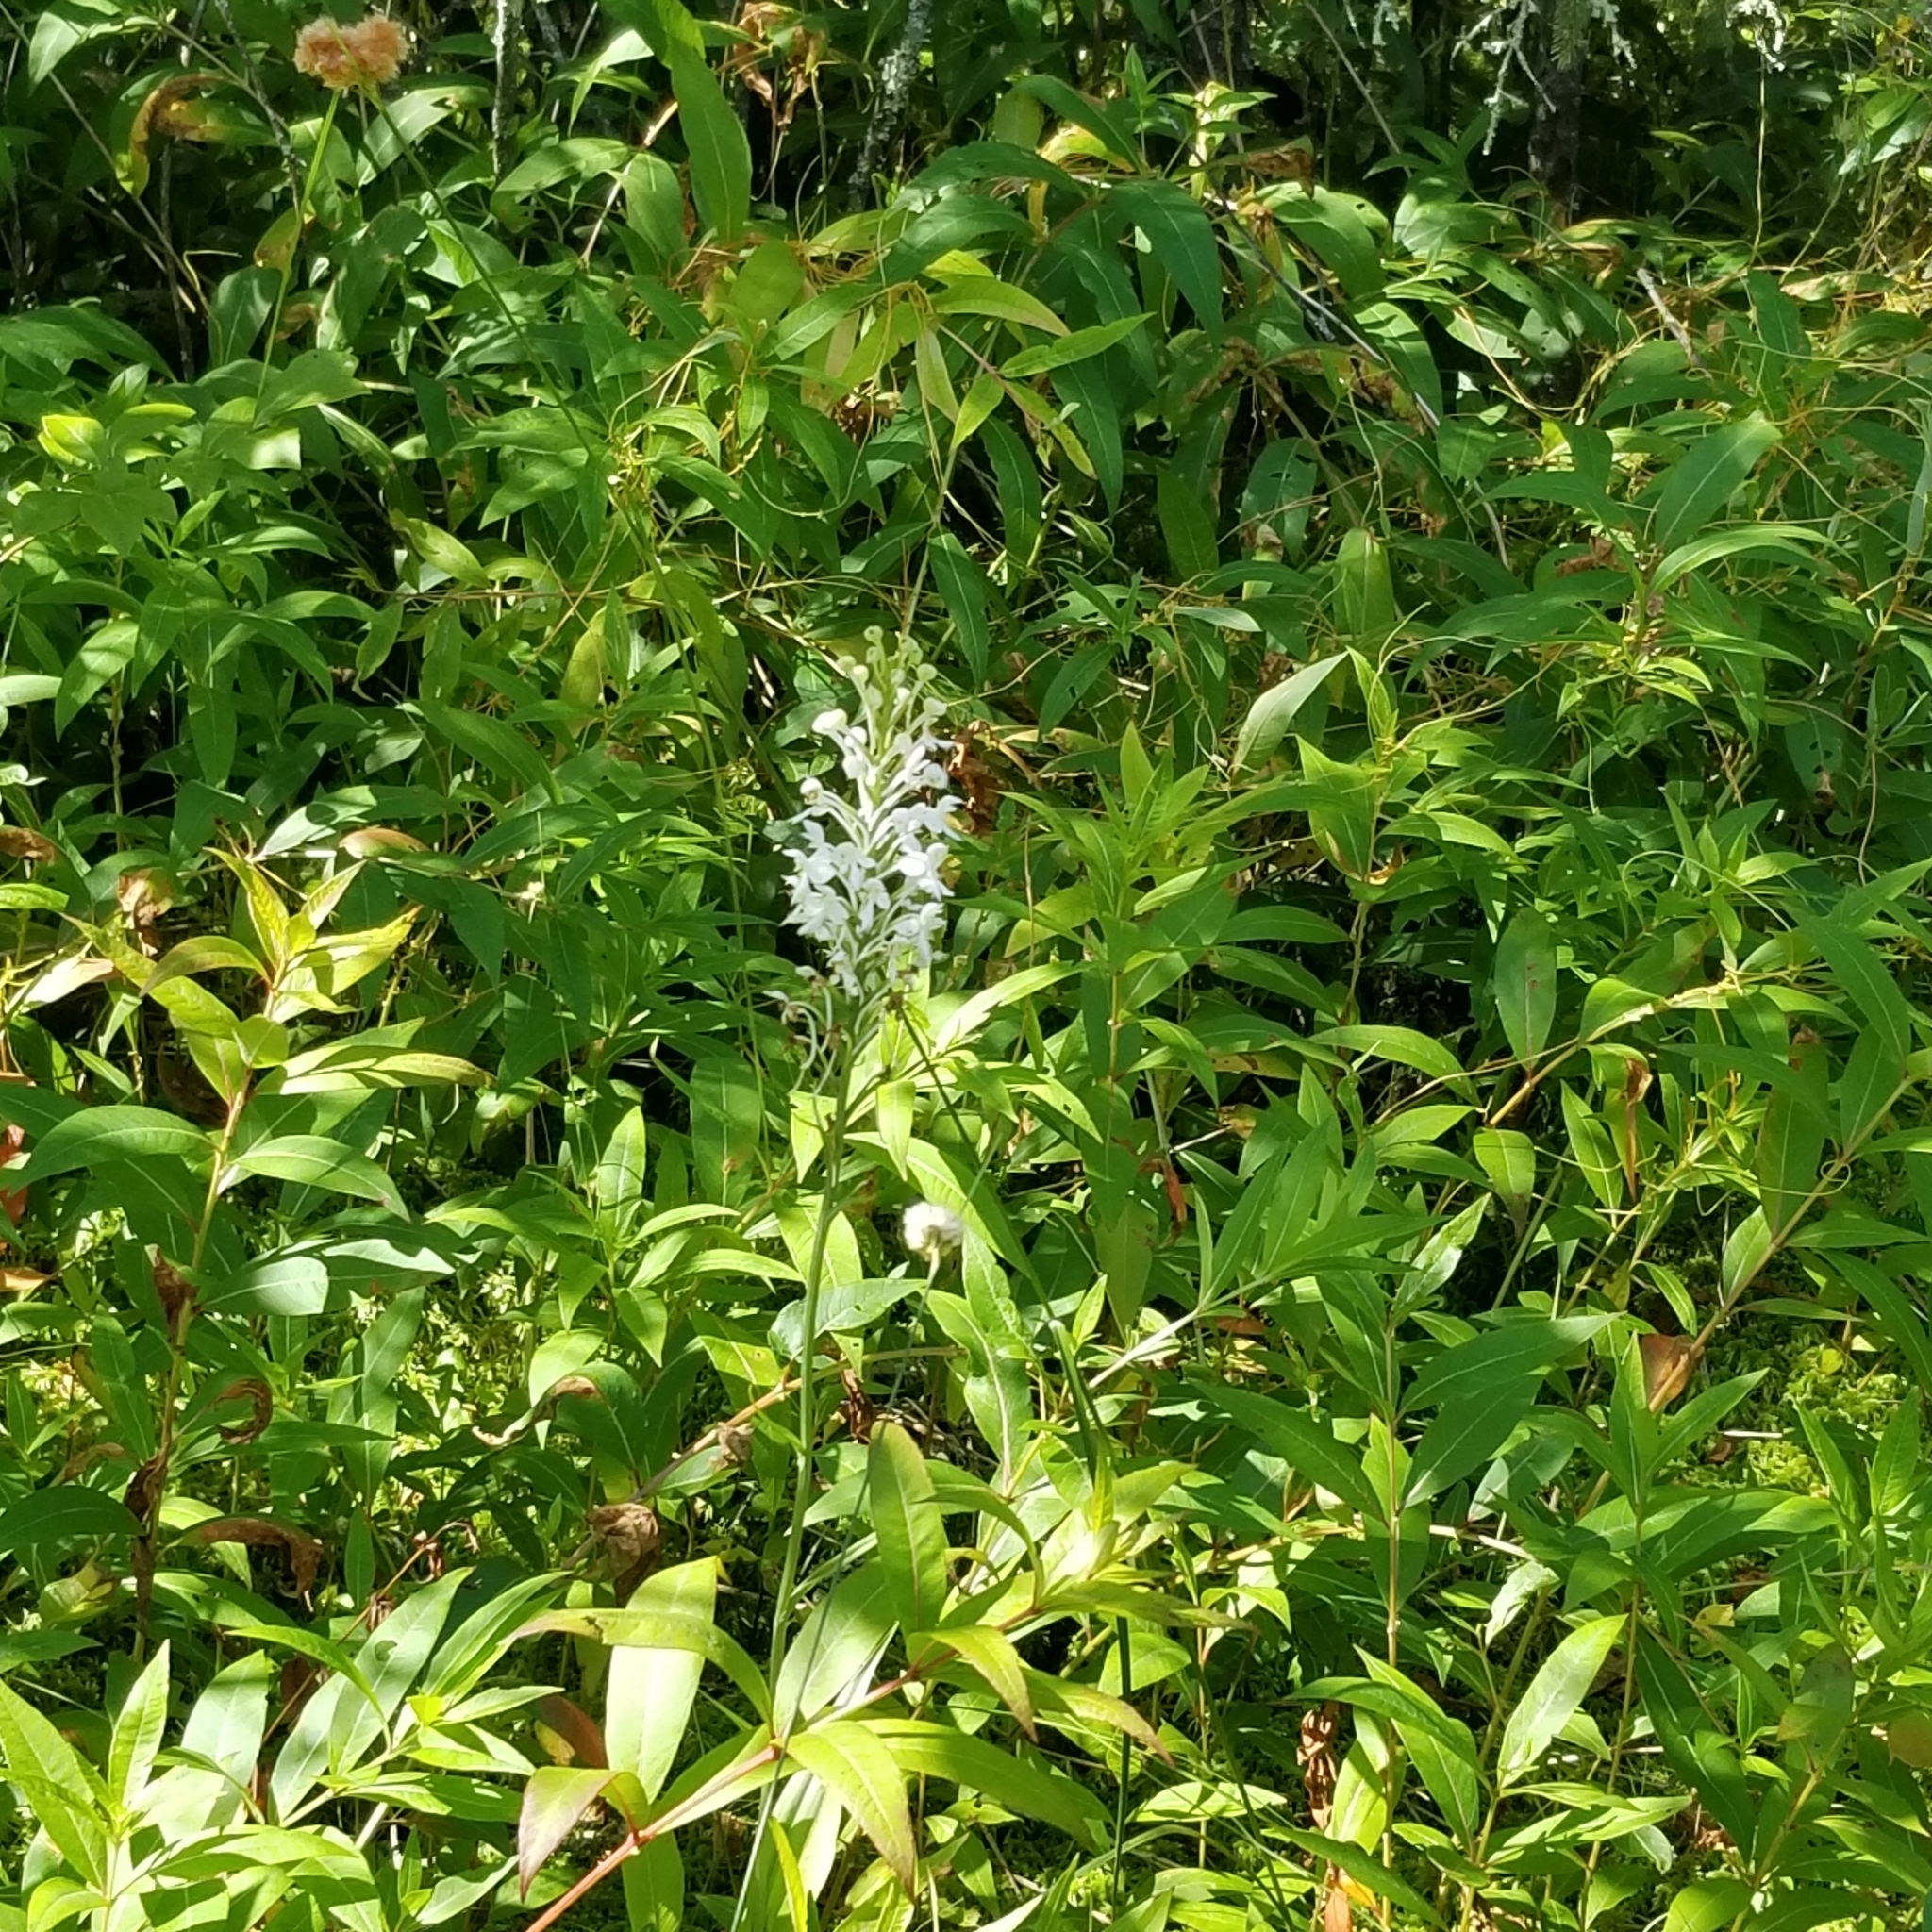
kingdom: Plantae
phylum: Tracheophyta
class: Liliopsida
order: Asparagales
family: Orchidaceae
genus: Platanthera
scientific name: Platanthera blephariglottis
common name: White fringed orchid
